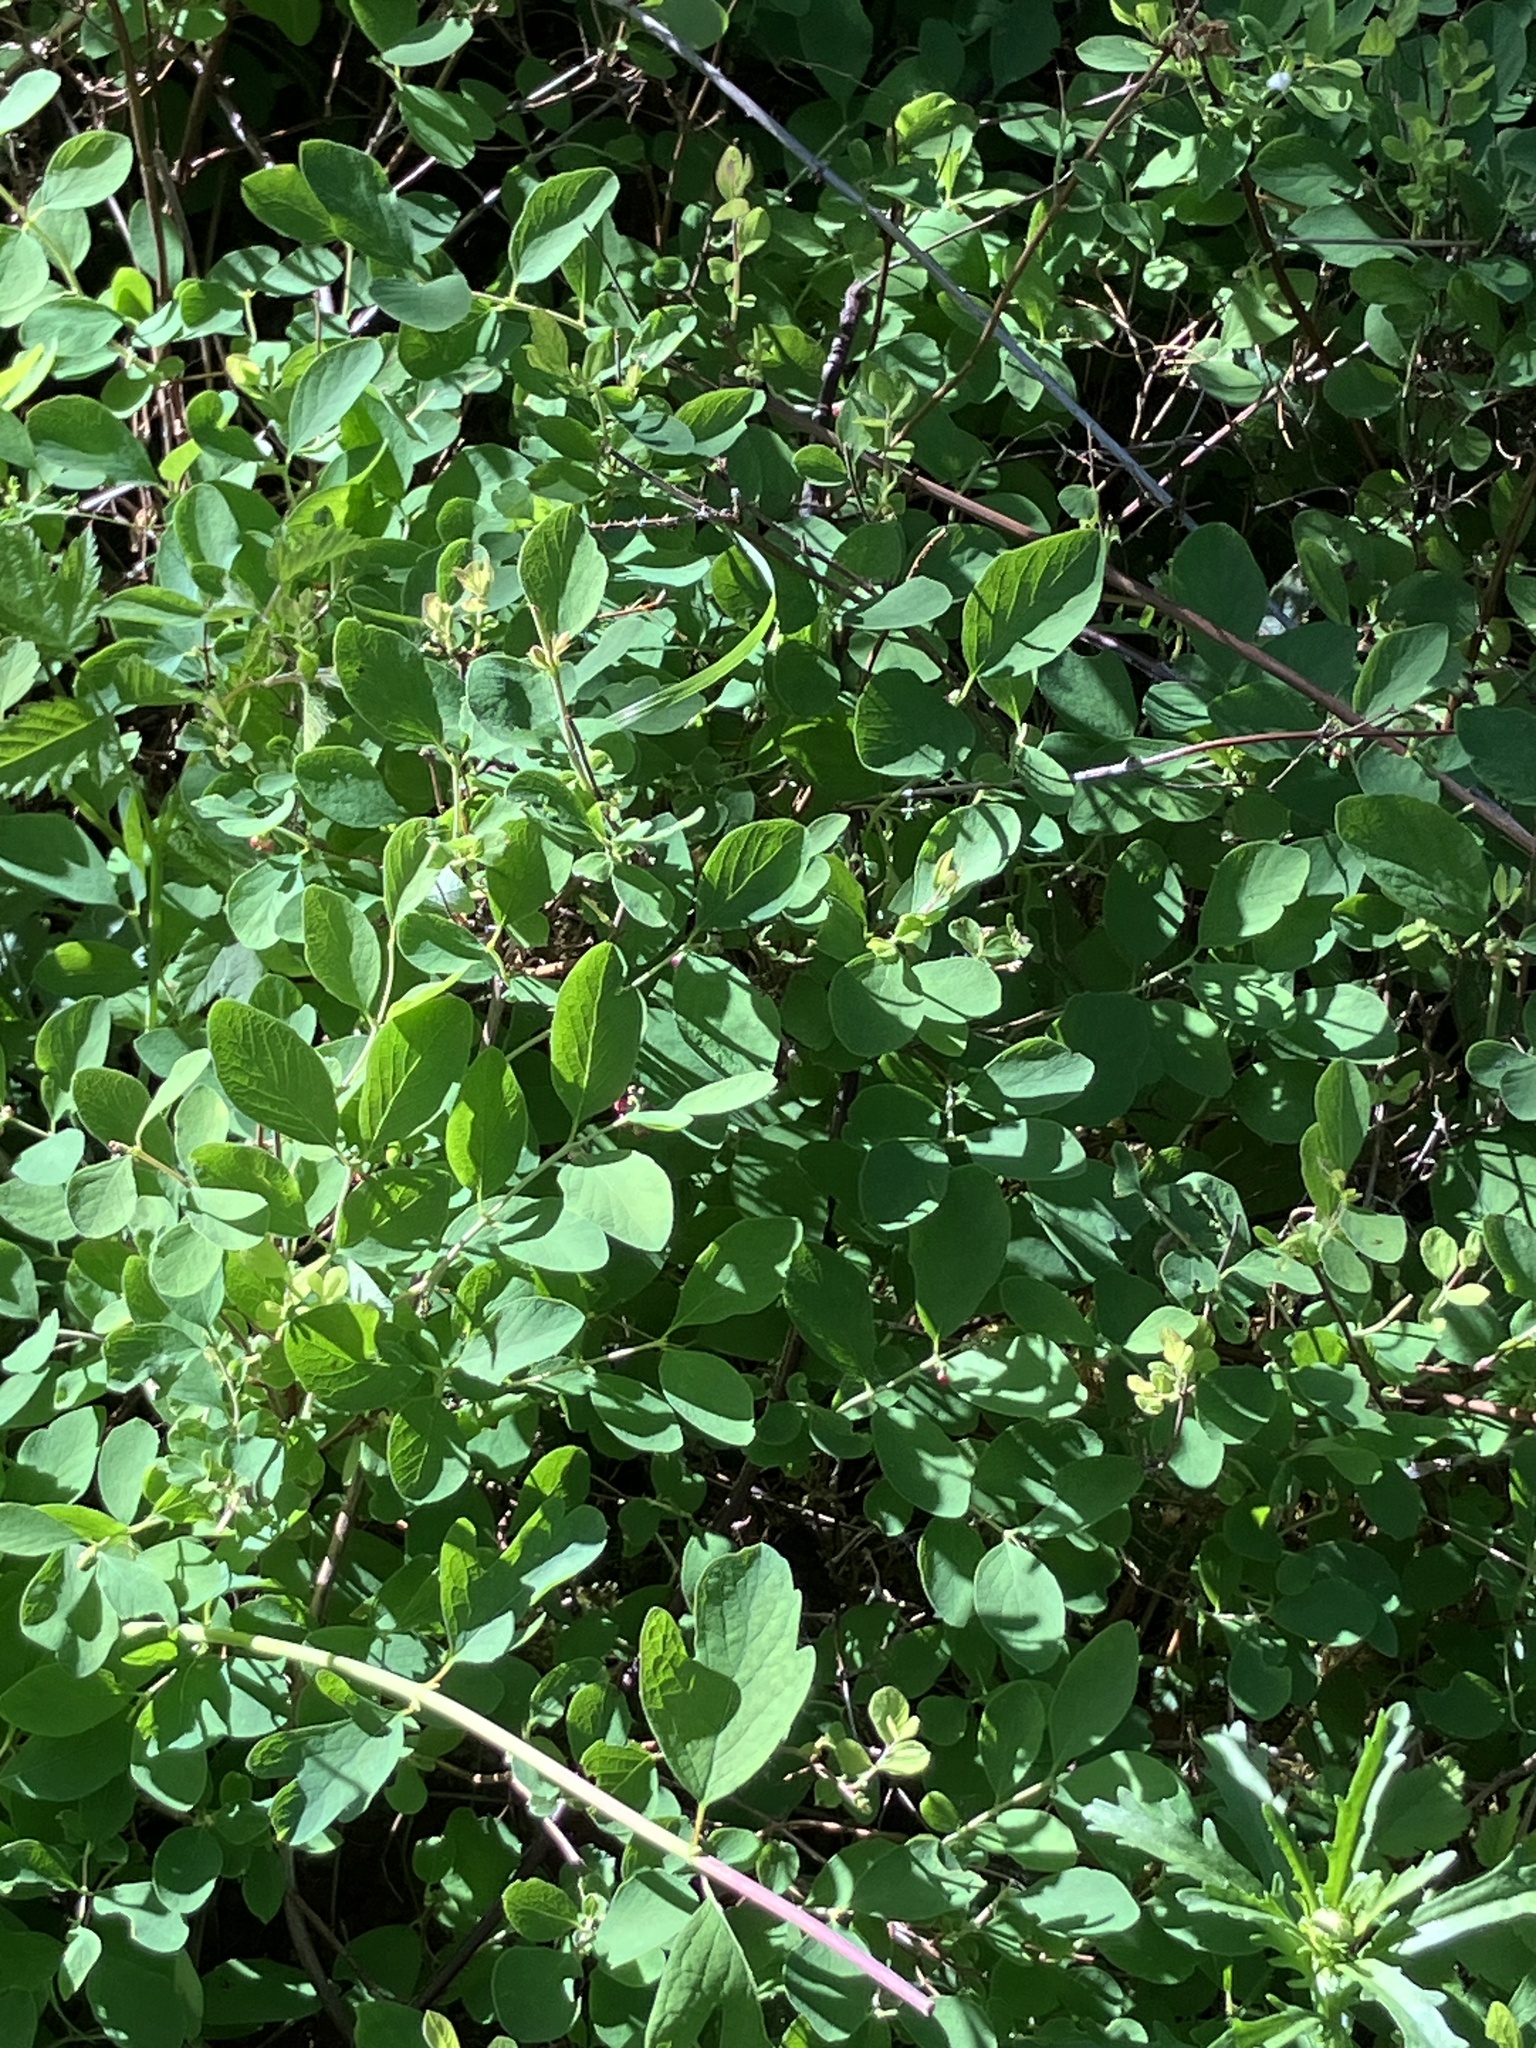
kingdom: Plantae
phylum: Tracheophyta
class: Magnoliopsida
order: Dipsacales
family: Caprifoliaceae
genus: Symphoricarpos
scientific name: Symphoricarpos albus
